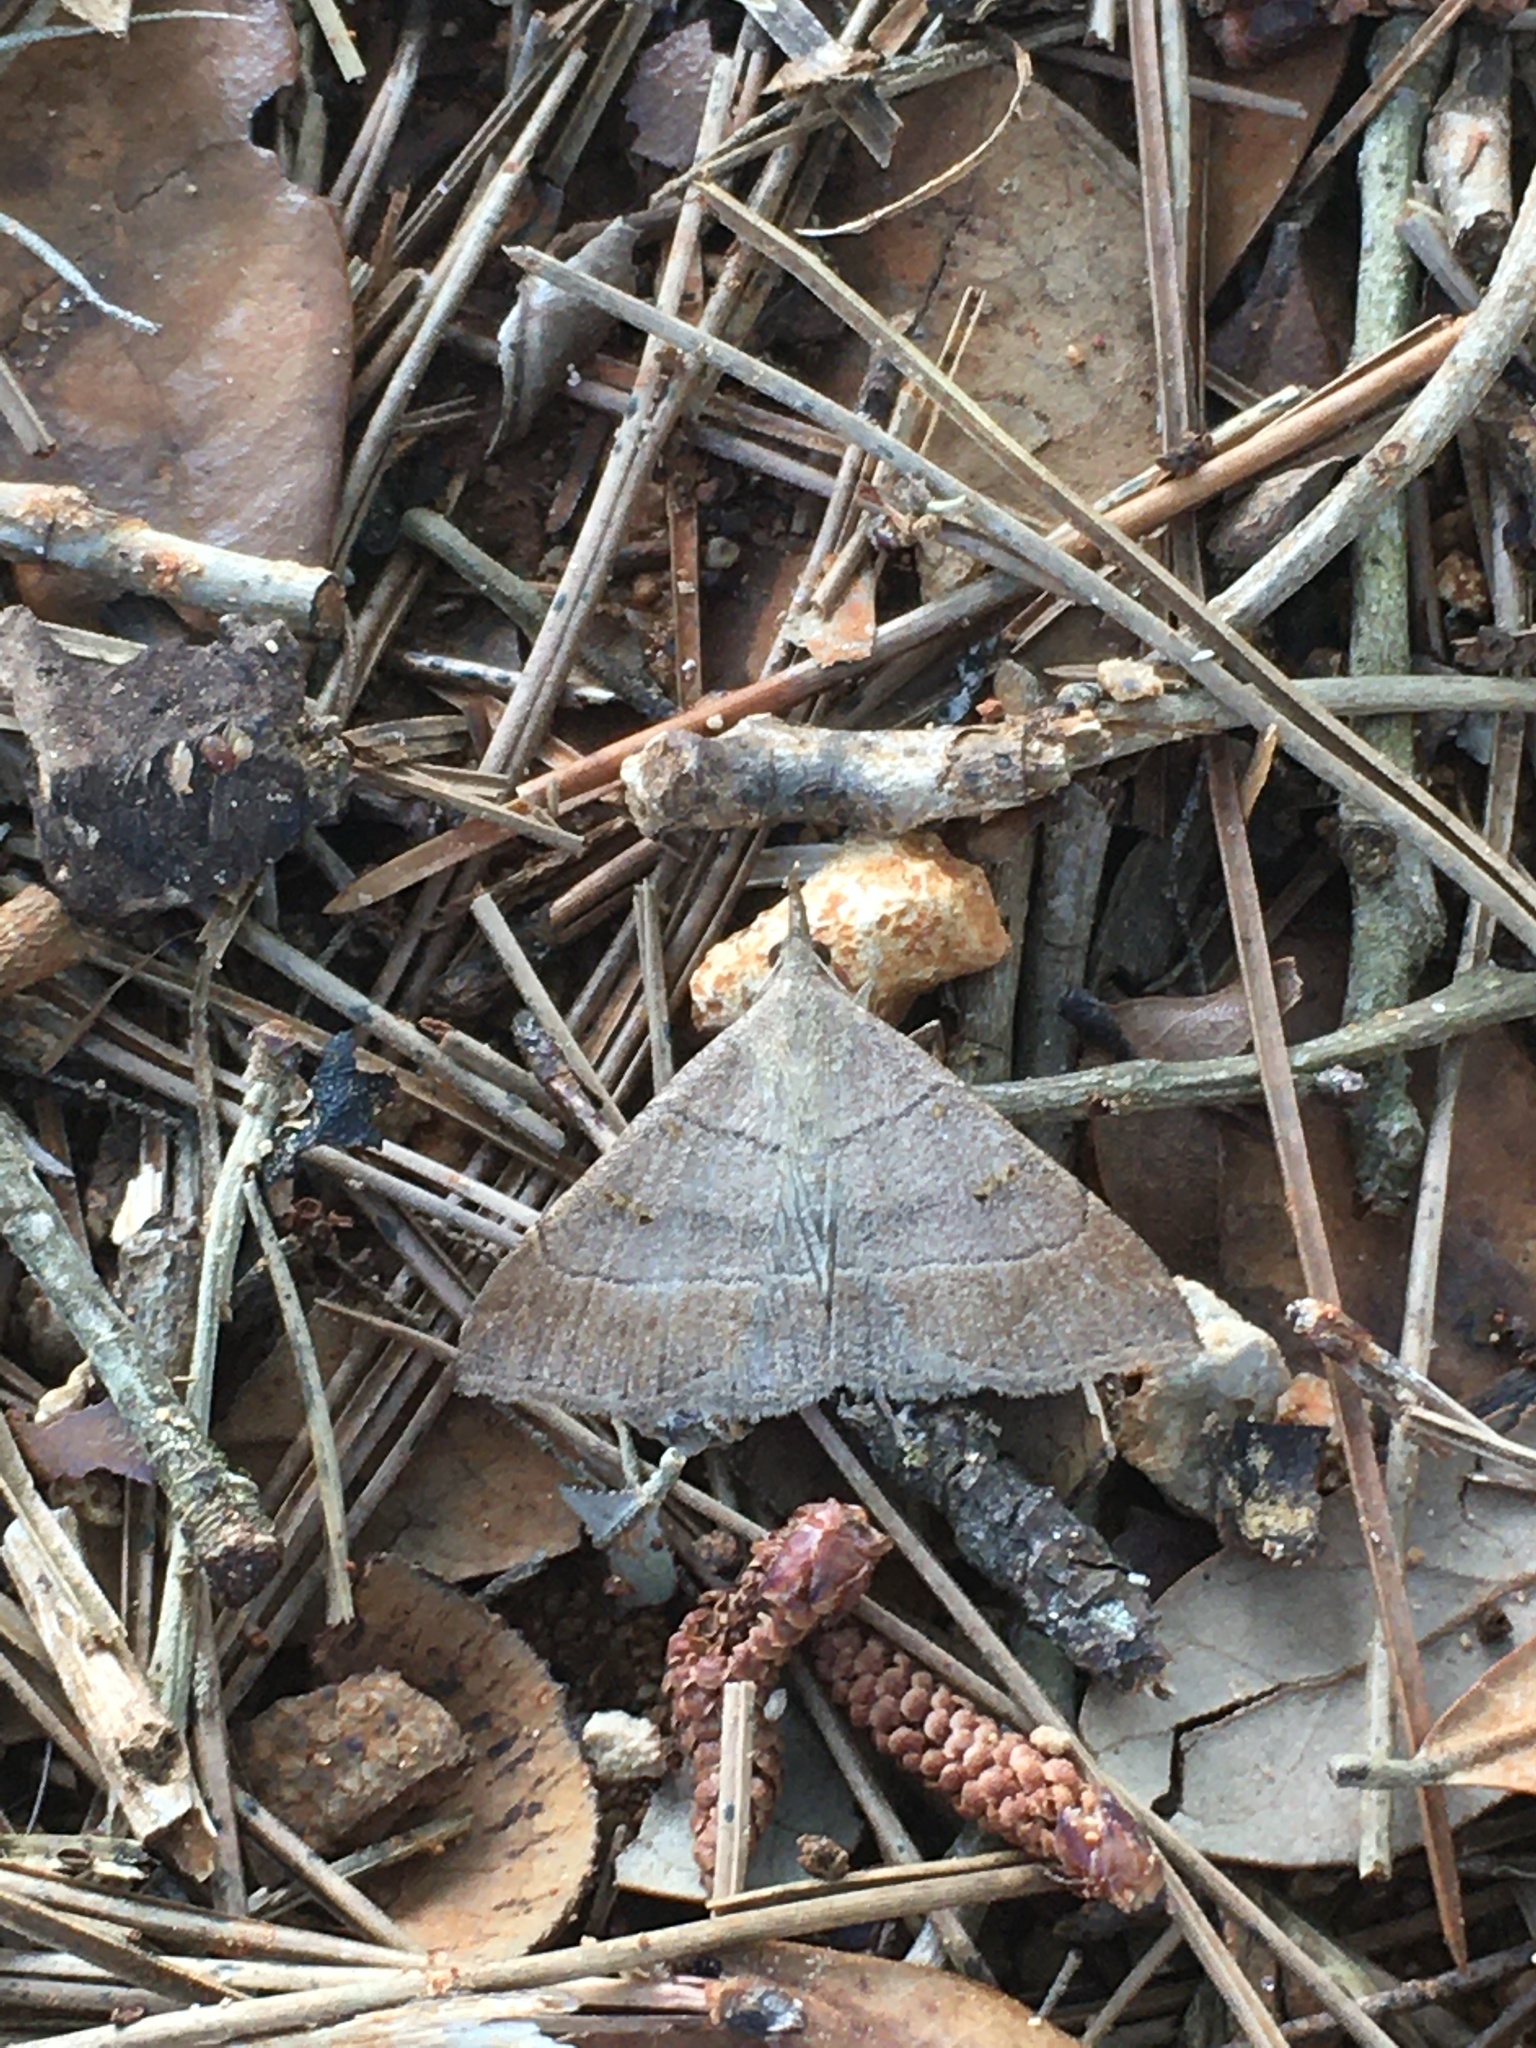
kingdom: Animalia
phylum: Arthropoda
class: Insecta
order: Lepidoptera
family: Erebidae
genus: Renia
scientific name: Renia flavipunctalis
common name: Yellow-spotted renia moth
